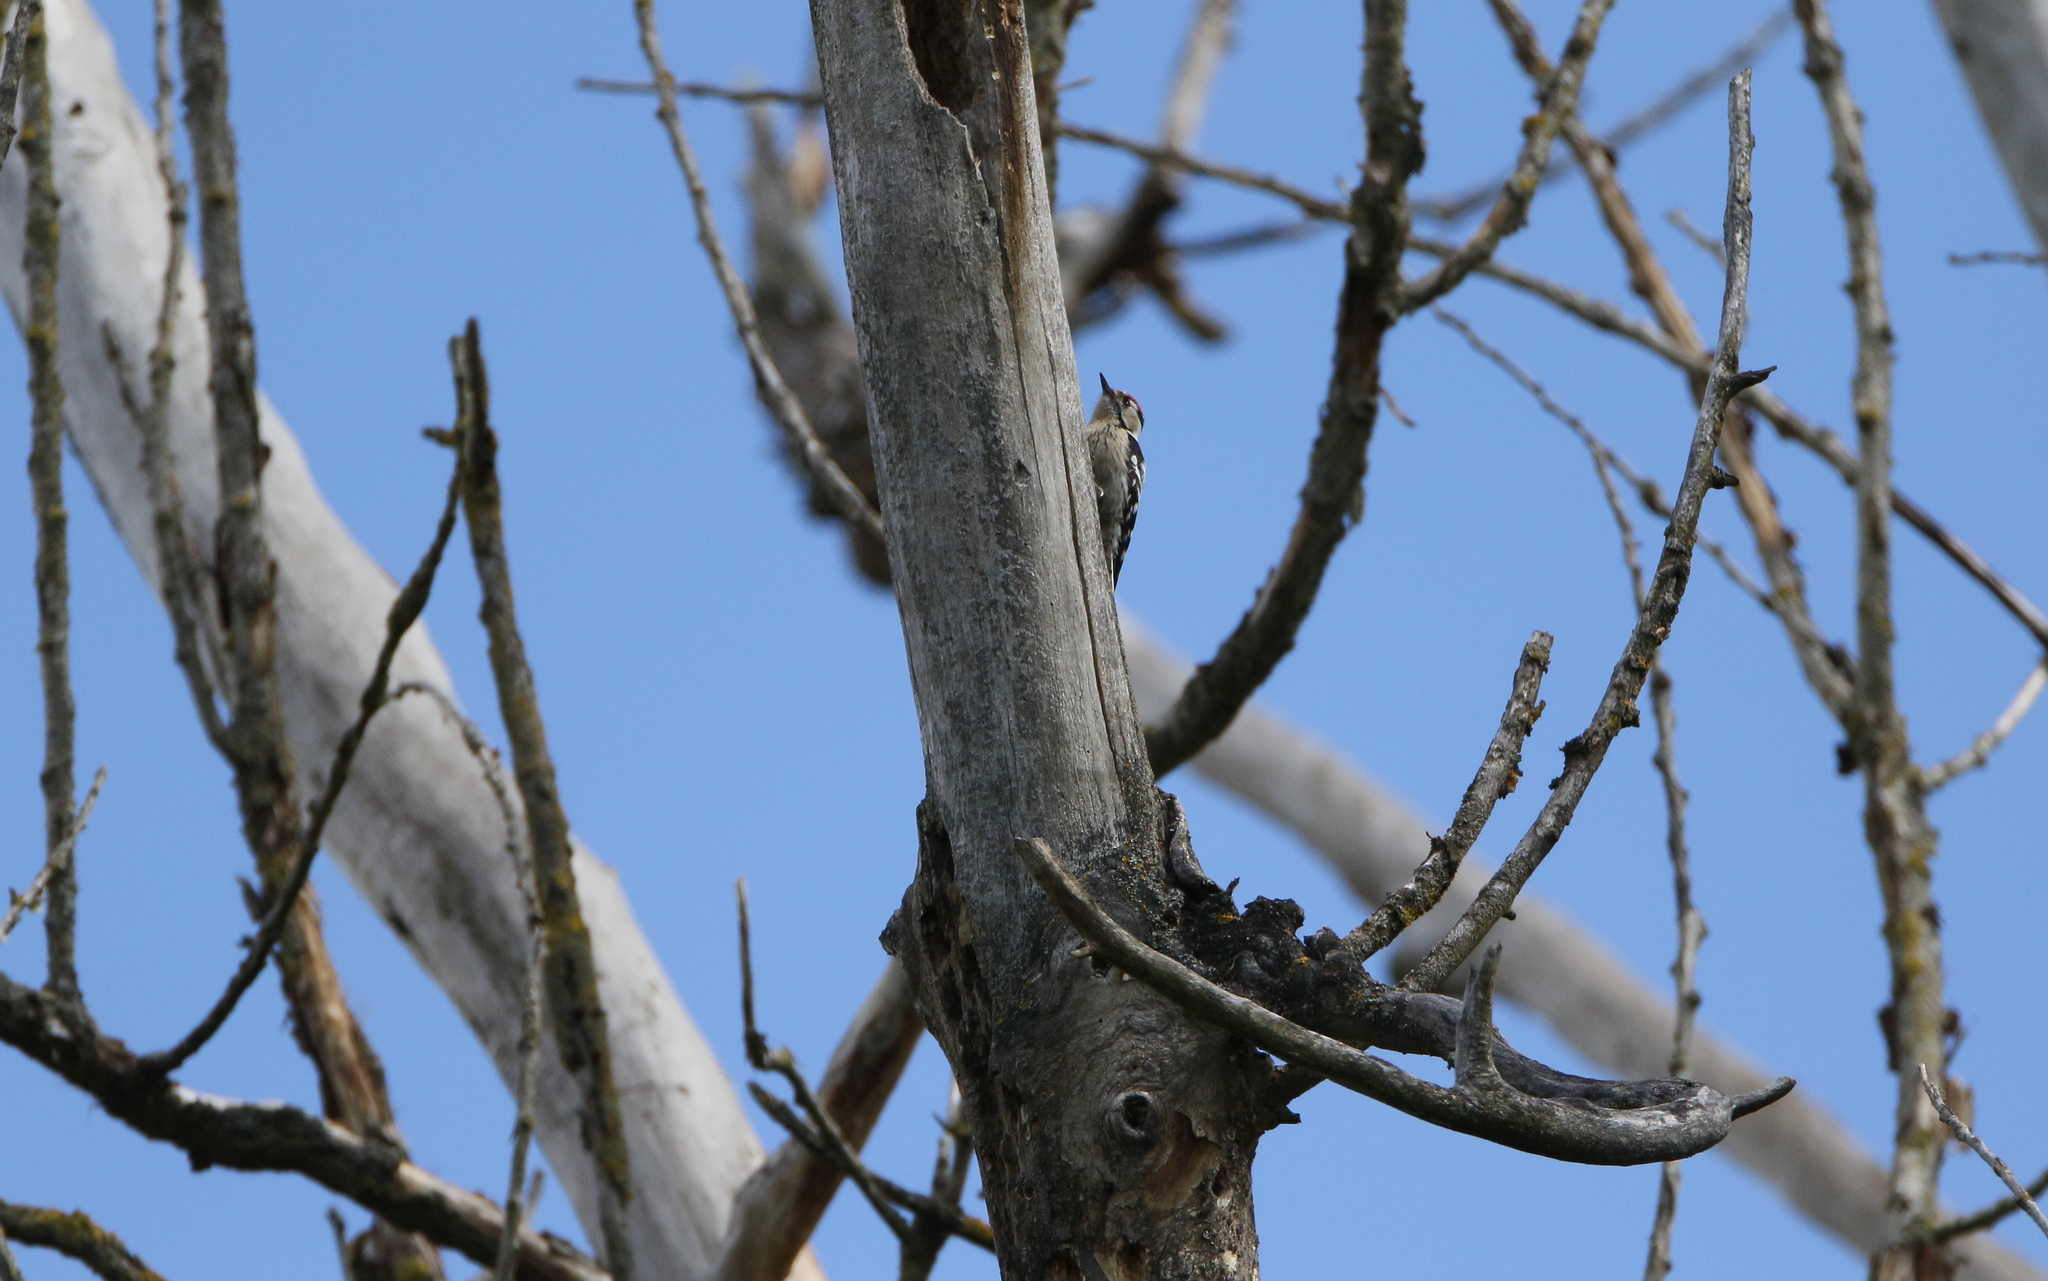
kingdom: Animalia
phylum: Chordata
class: Aves
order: Piciformes
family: Picidae
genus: Dryobates
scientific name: Dryobates minor
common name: Lesser spotted woodpecker
